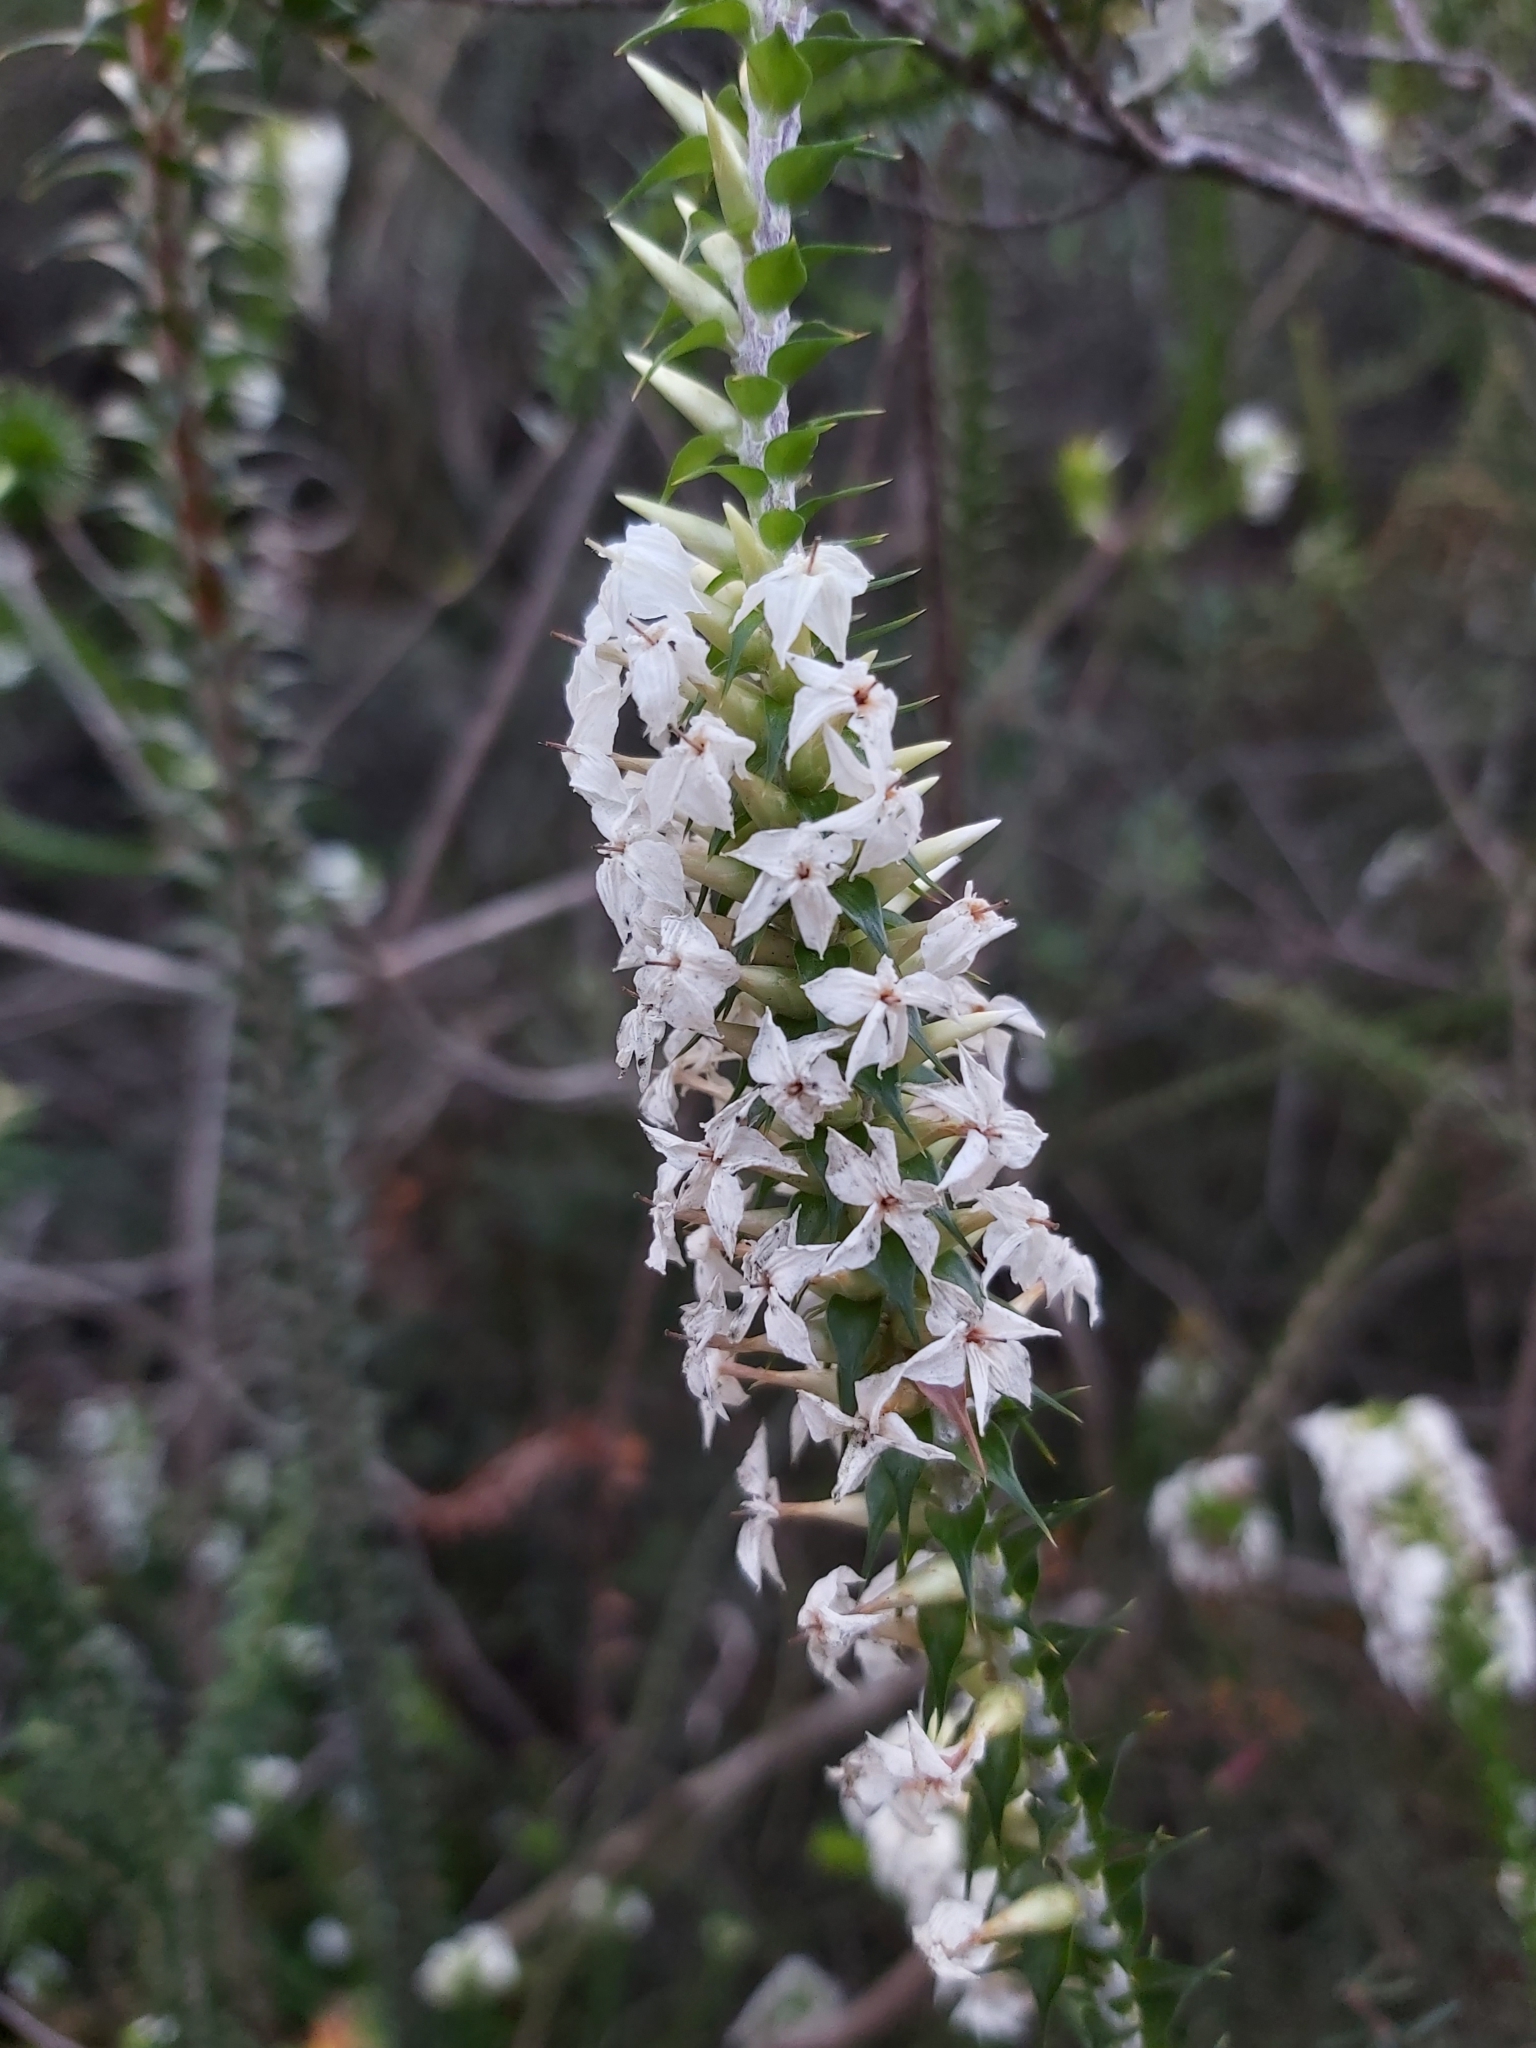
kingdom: Plantae
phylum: Tracheophyta
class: Magnoliopsida
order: Ericales
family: Ericaceae
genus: Woollsia
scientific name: Woollsia pungens
